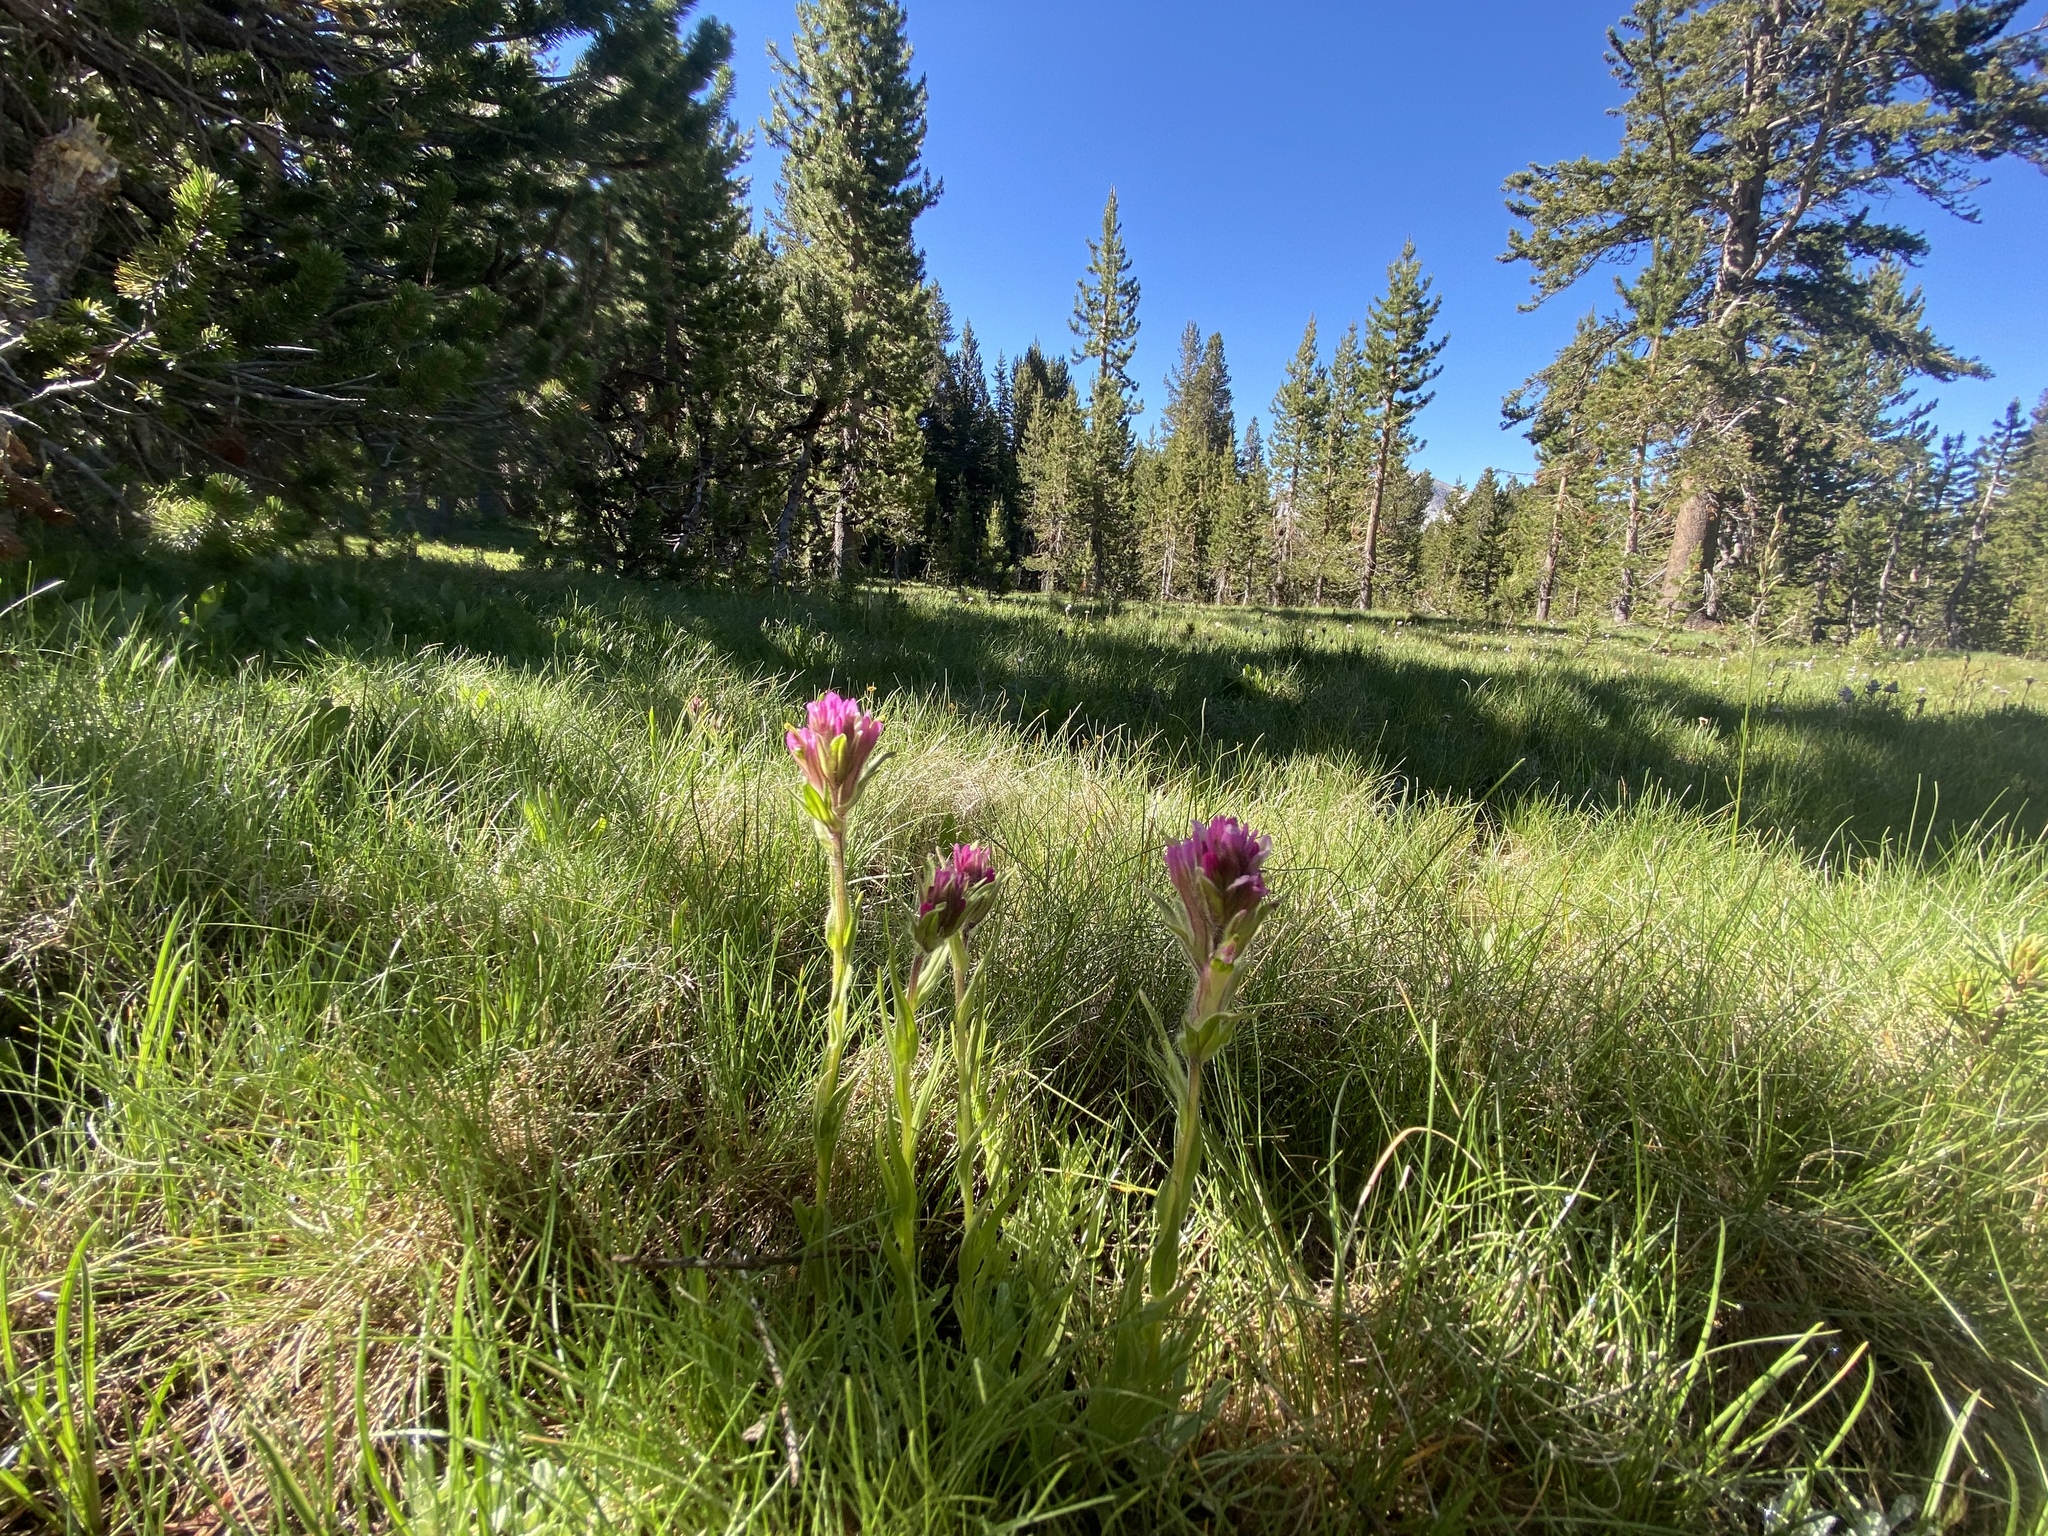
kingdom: Plantae
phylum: Tracheophyta
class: Magnoliopsida
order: Lamiales
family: Orobanchaceae
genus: Castilleja
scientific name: Castilleja lemmonii
